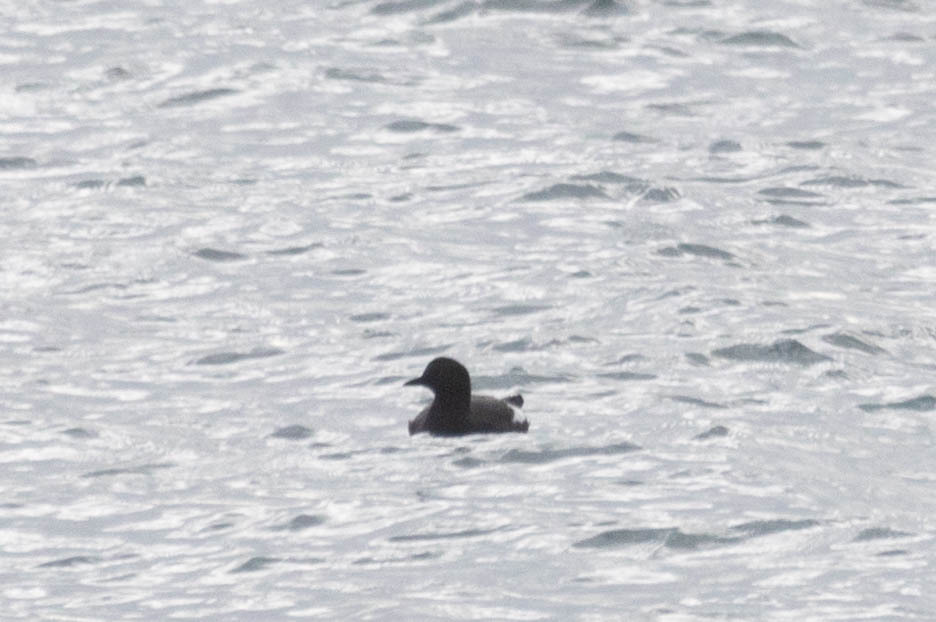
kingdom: Animalia
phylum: Chordata
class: Aves
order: Charadriiformes
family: Alcidae
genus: Cepphus
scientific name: Cepphus columba
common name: Pigeon guillemot
